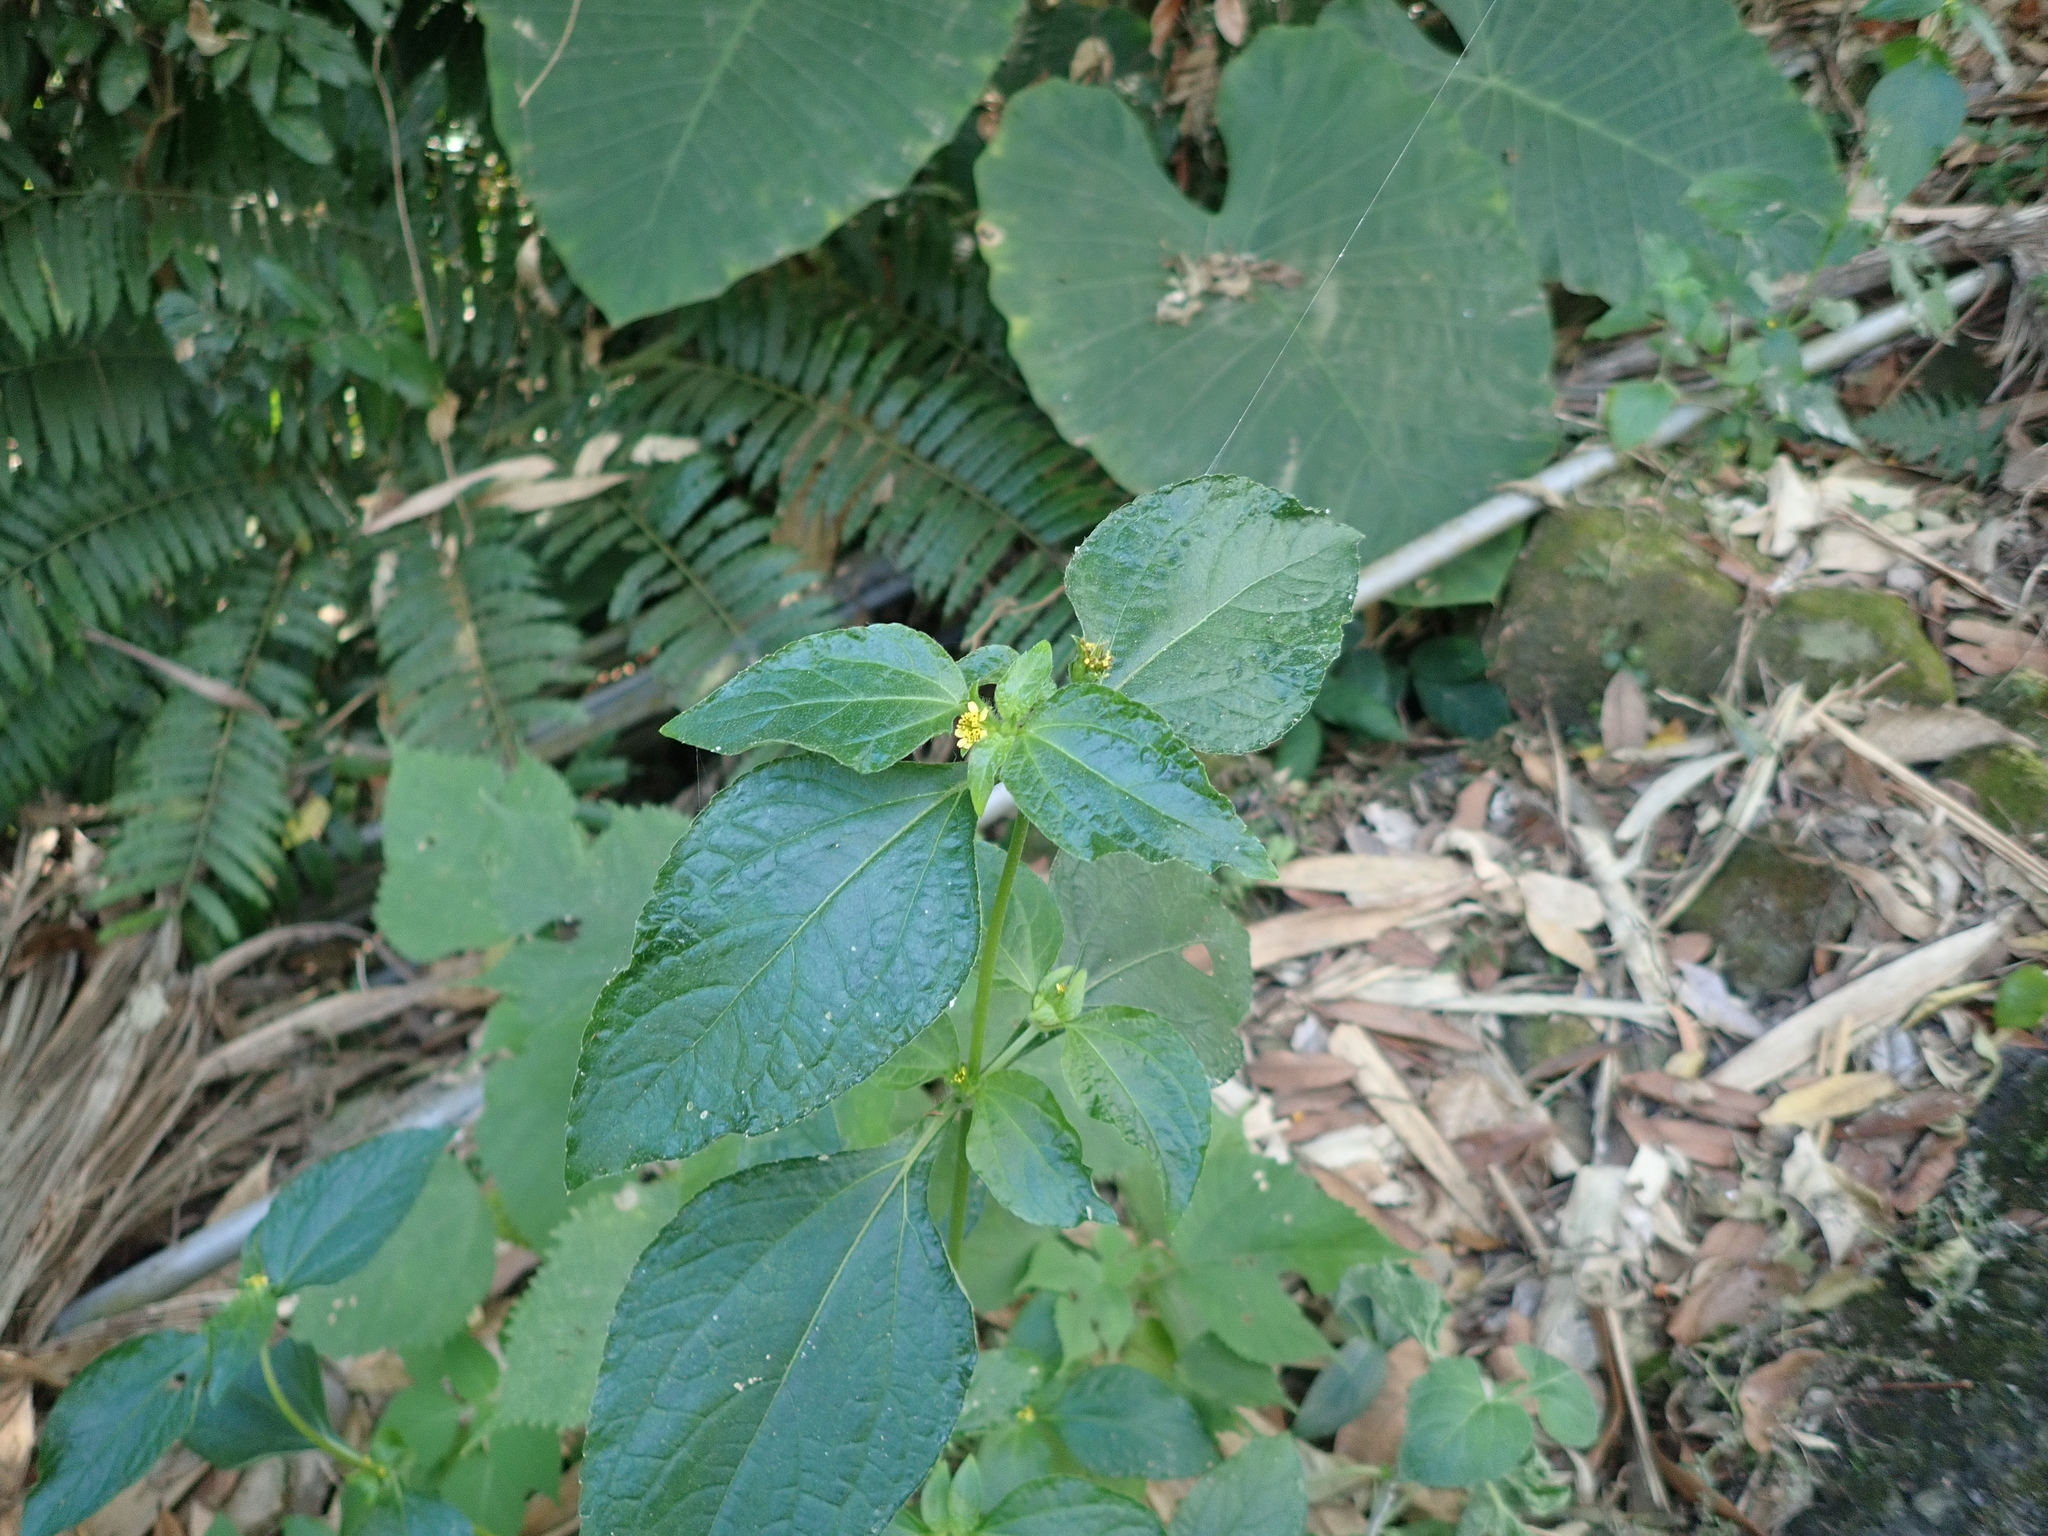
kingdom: Plantae
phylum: Tracheophyta
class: Magnoliopsida
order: Asterales
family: Asteraceae
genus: Synedrella
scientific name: Synedrella nodiflora
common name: Nodeweed
